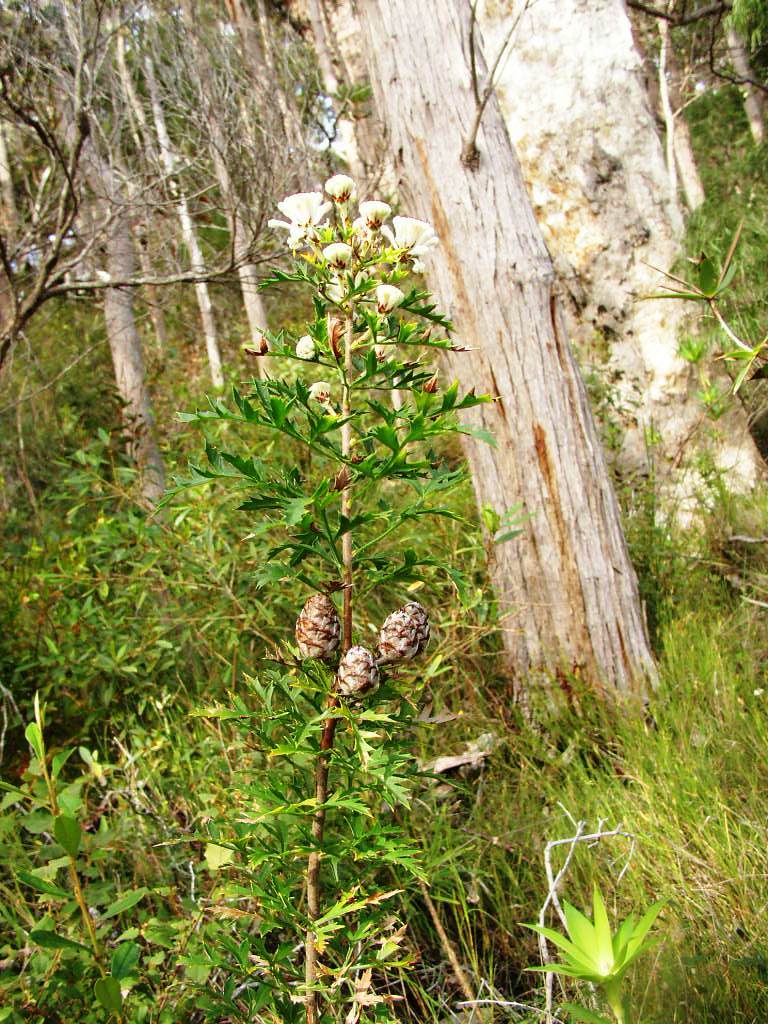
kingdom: Plantae
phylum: Tracheophyta
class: Magnoliopsida
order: Proteales
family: Proteaceae
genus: Petrophile
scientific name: Petrophile diversifolia
